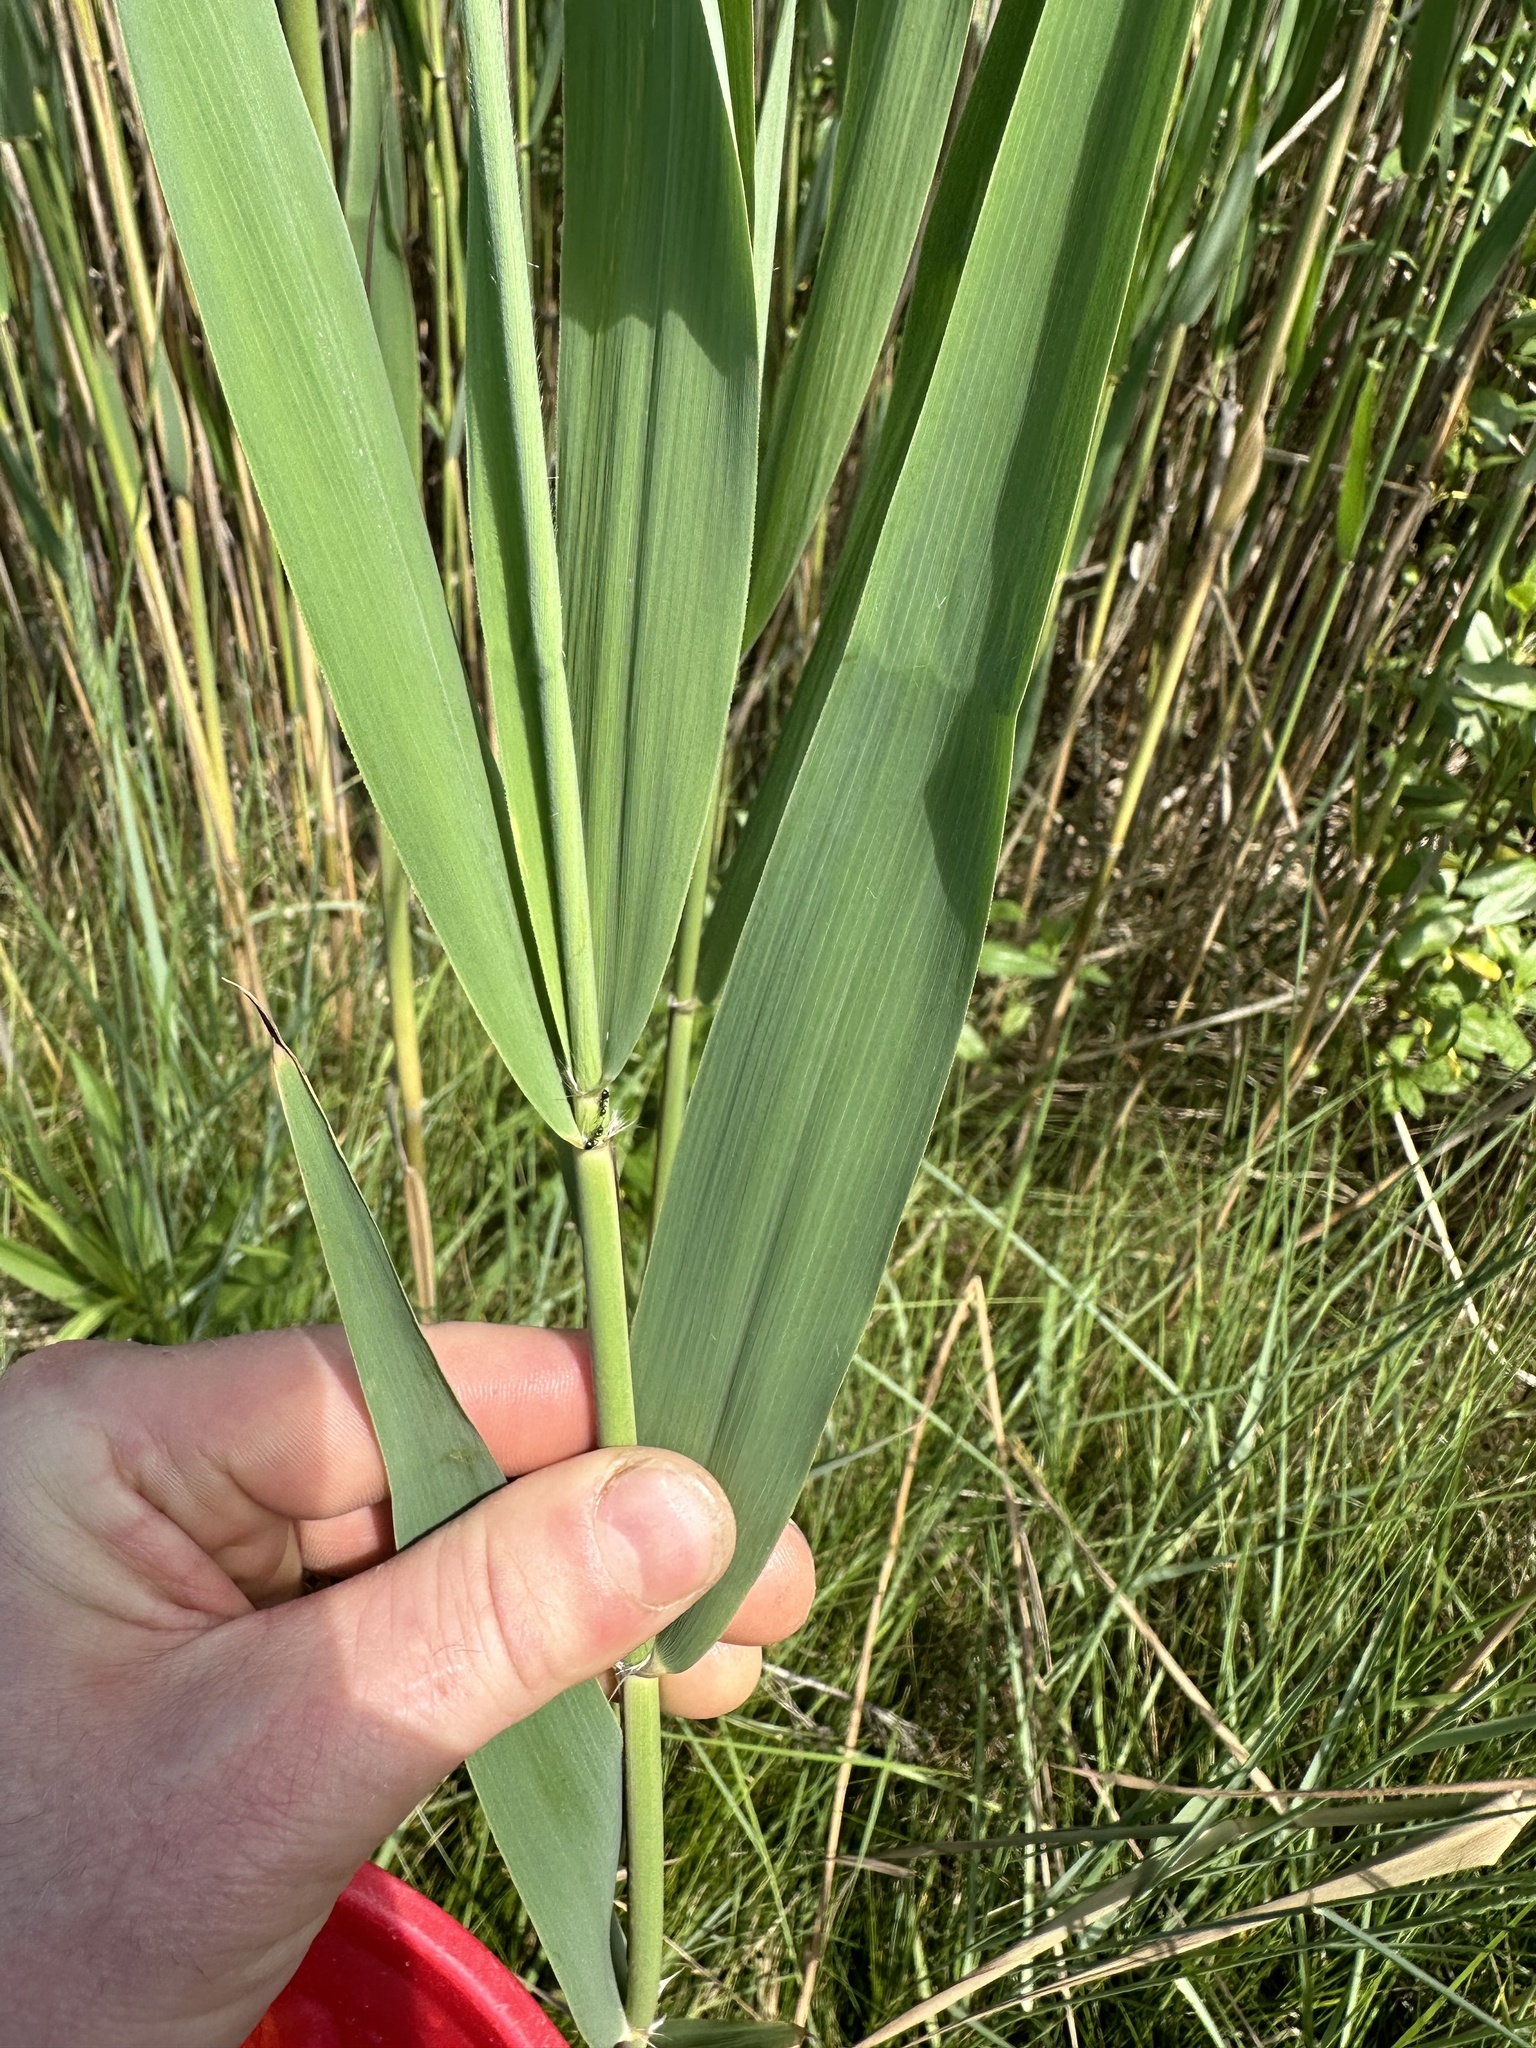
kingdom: Plantae
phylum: Tracheophyta
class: Liliopsida
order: Poales
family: Poaceae
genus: Phragmites
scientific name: Phragmites australis
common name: Common reed
